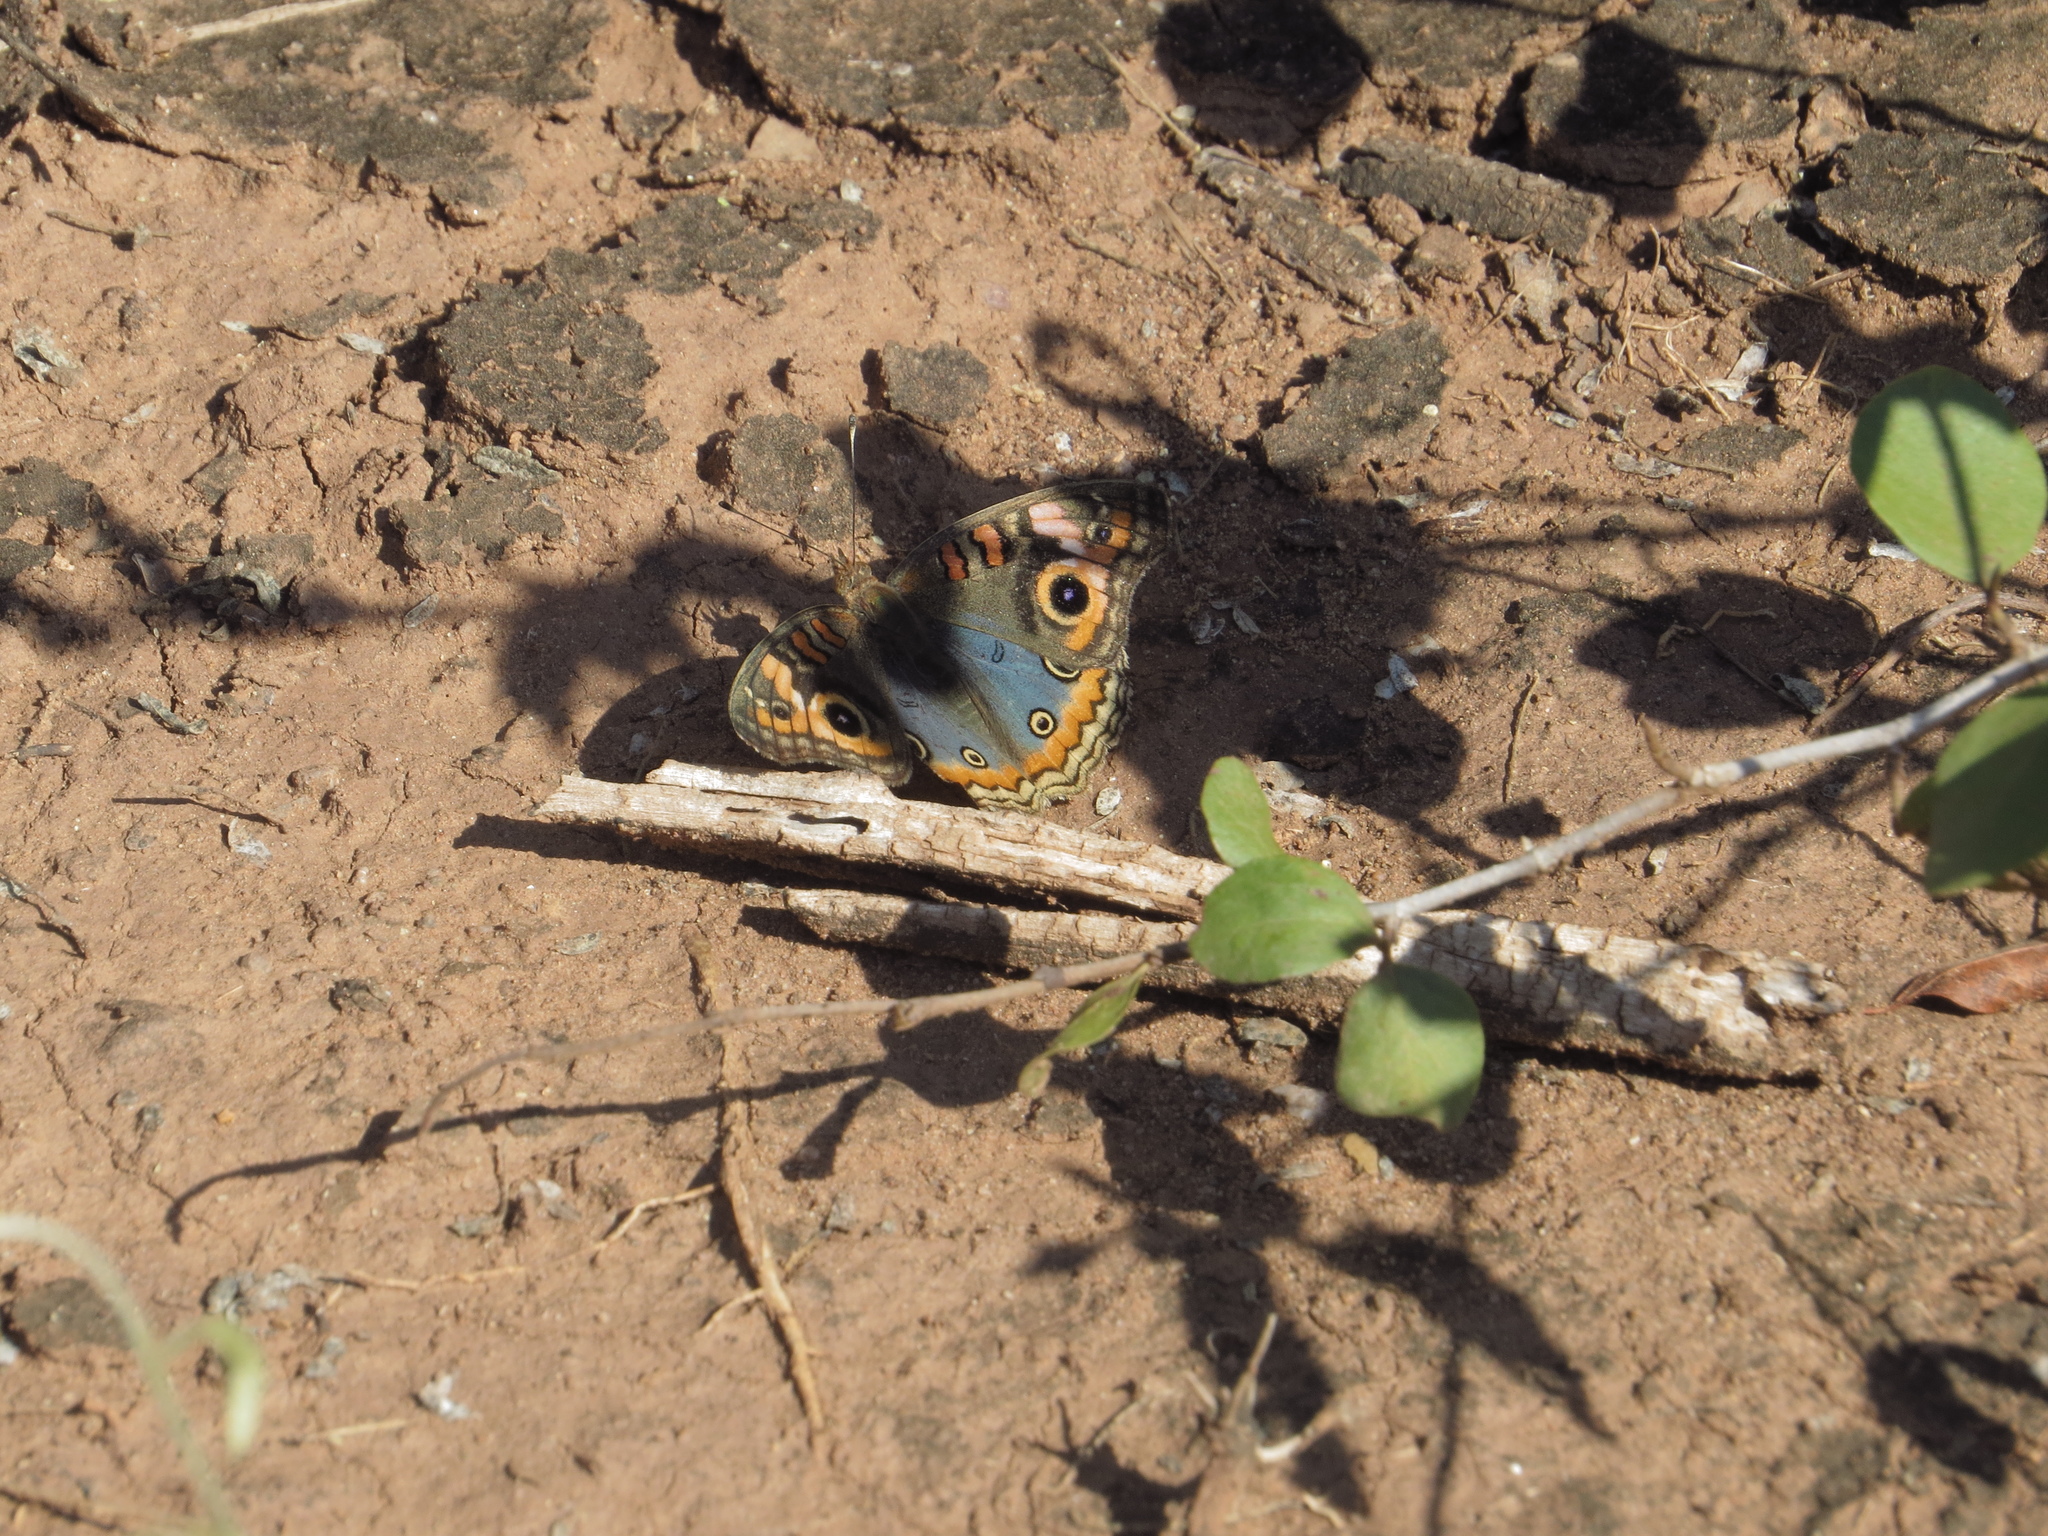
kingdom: Animalia
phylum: Arthropoda
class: Insecta
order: Lepidoptera
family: Nymphalidae
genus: Junonia
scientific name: Junonia lavinia
